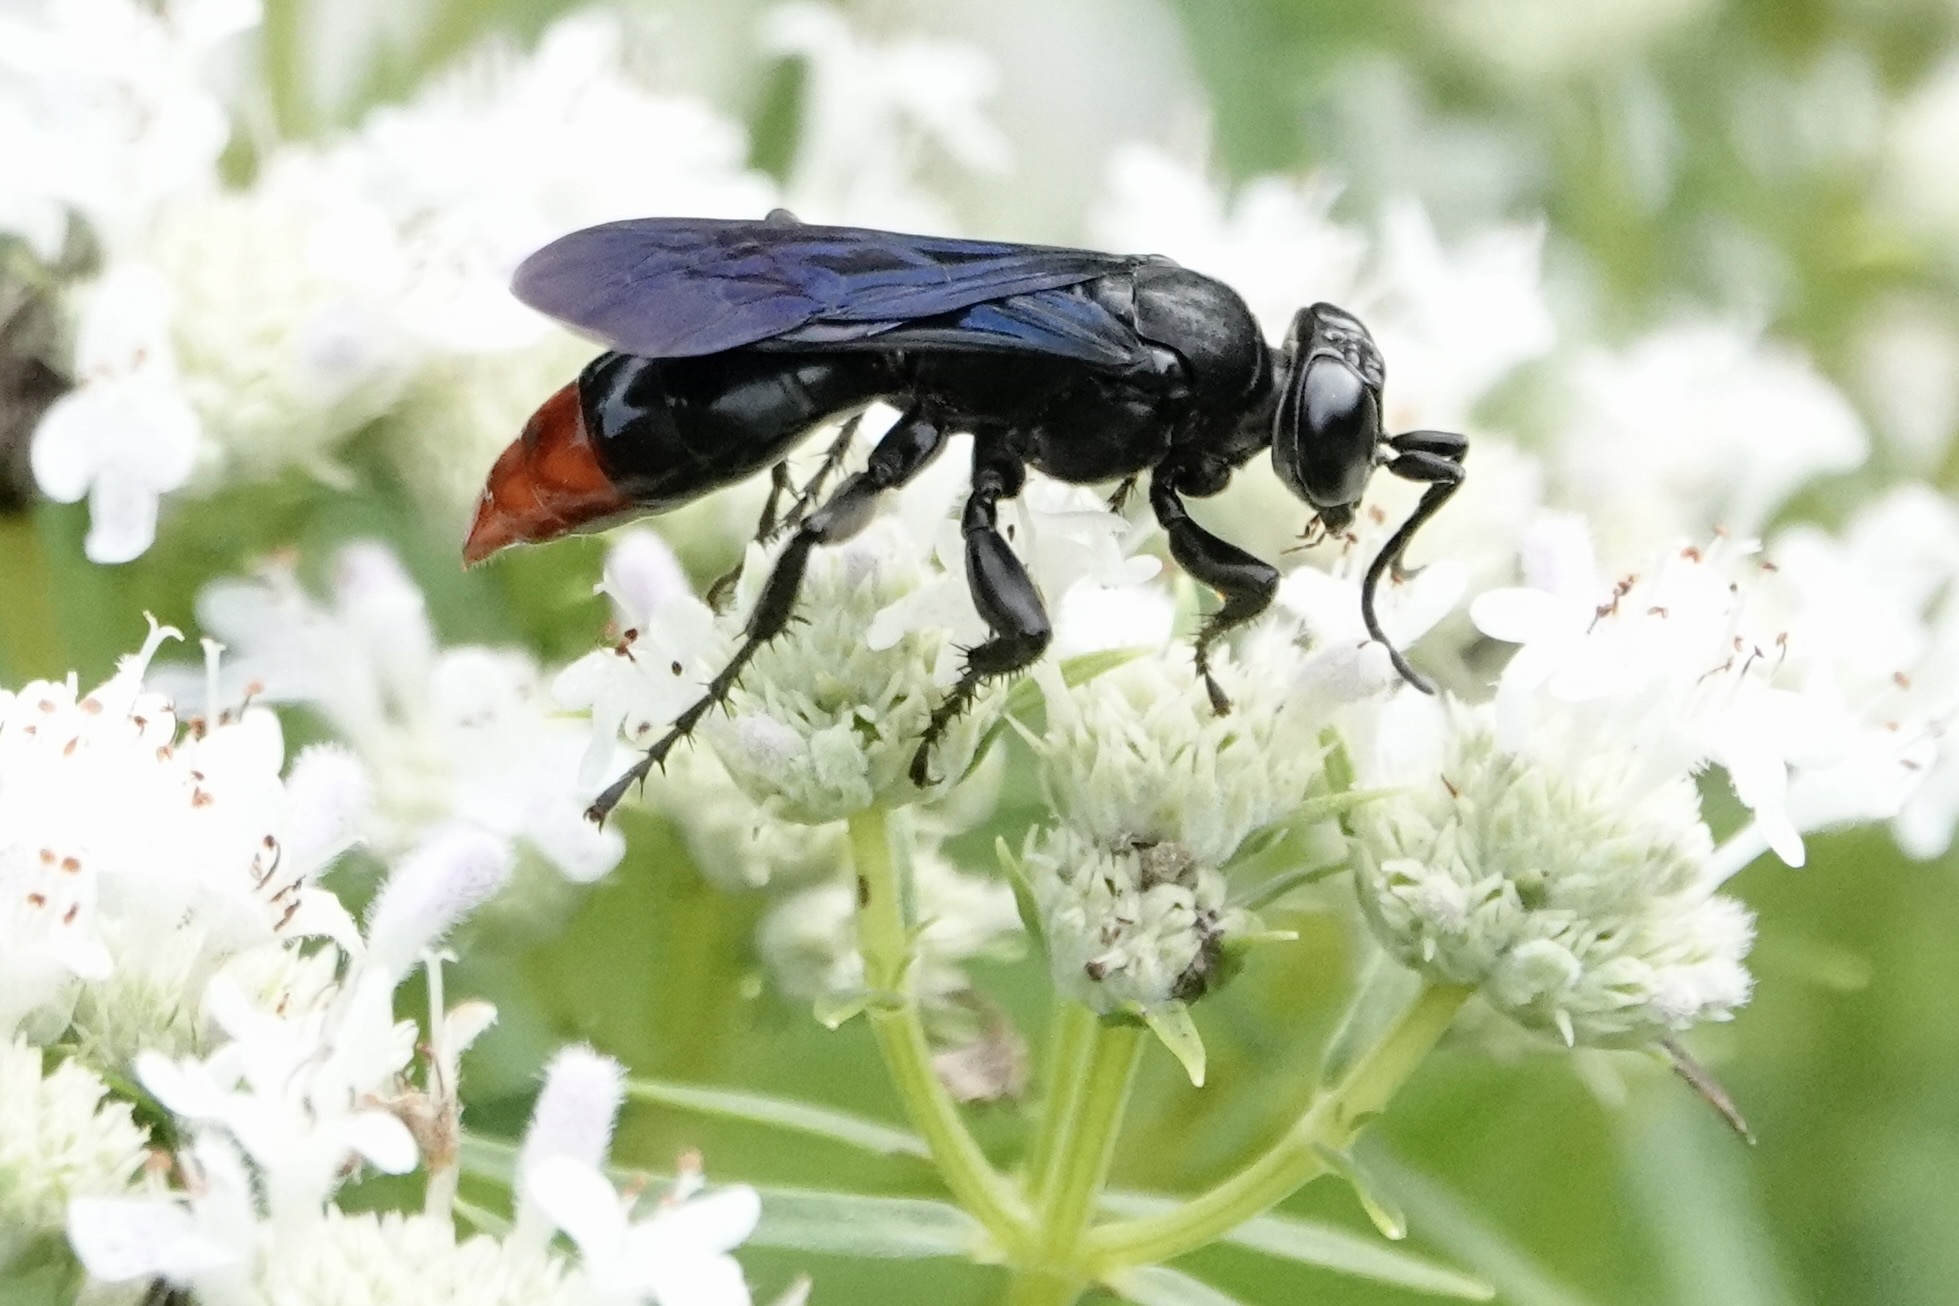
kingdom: Animalia
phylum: Arthropoda
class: Insecta
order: Hymenoptera
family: Crabronidae
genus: Larra
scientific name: Larra analis
